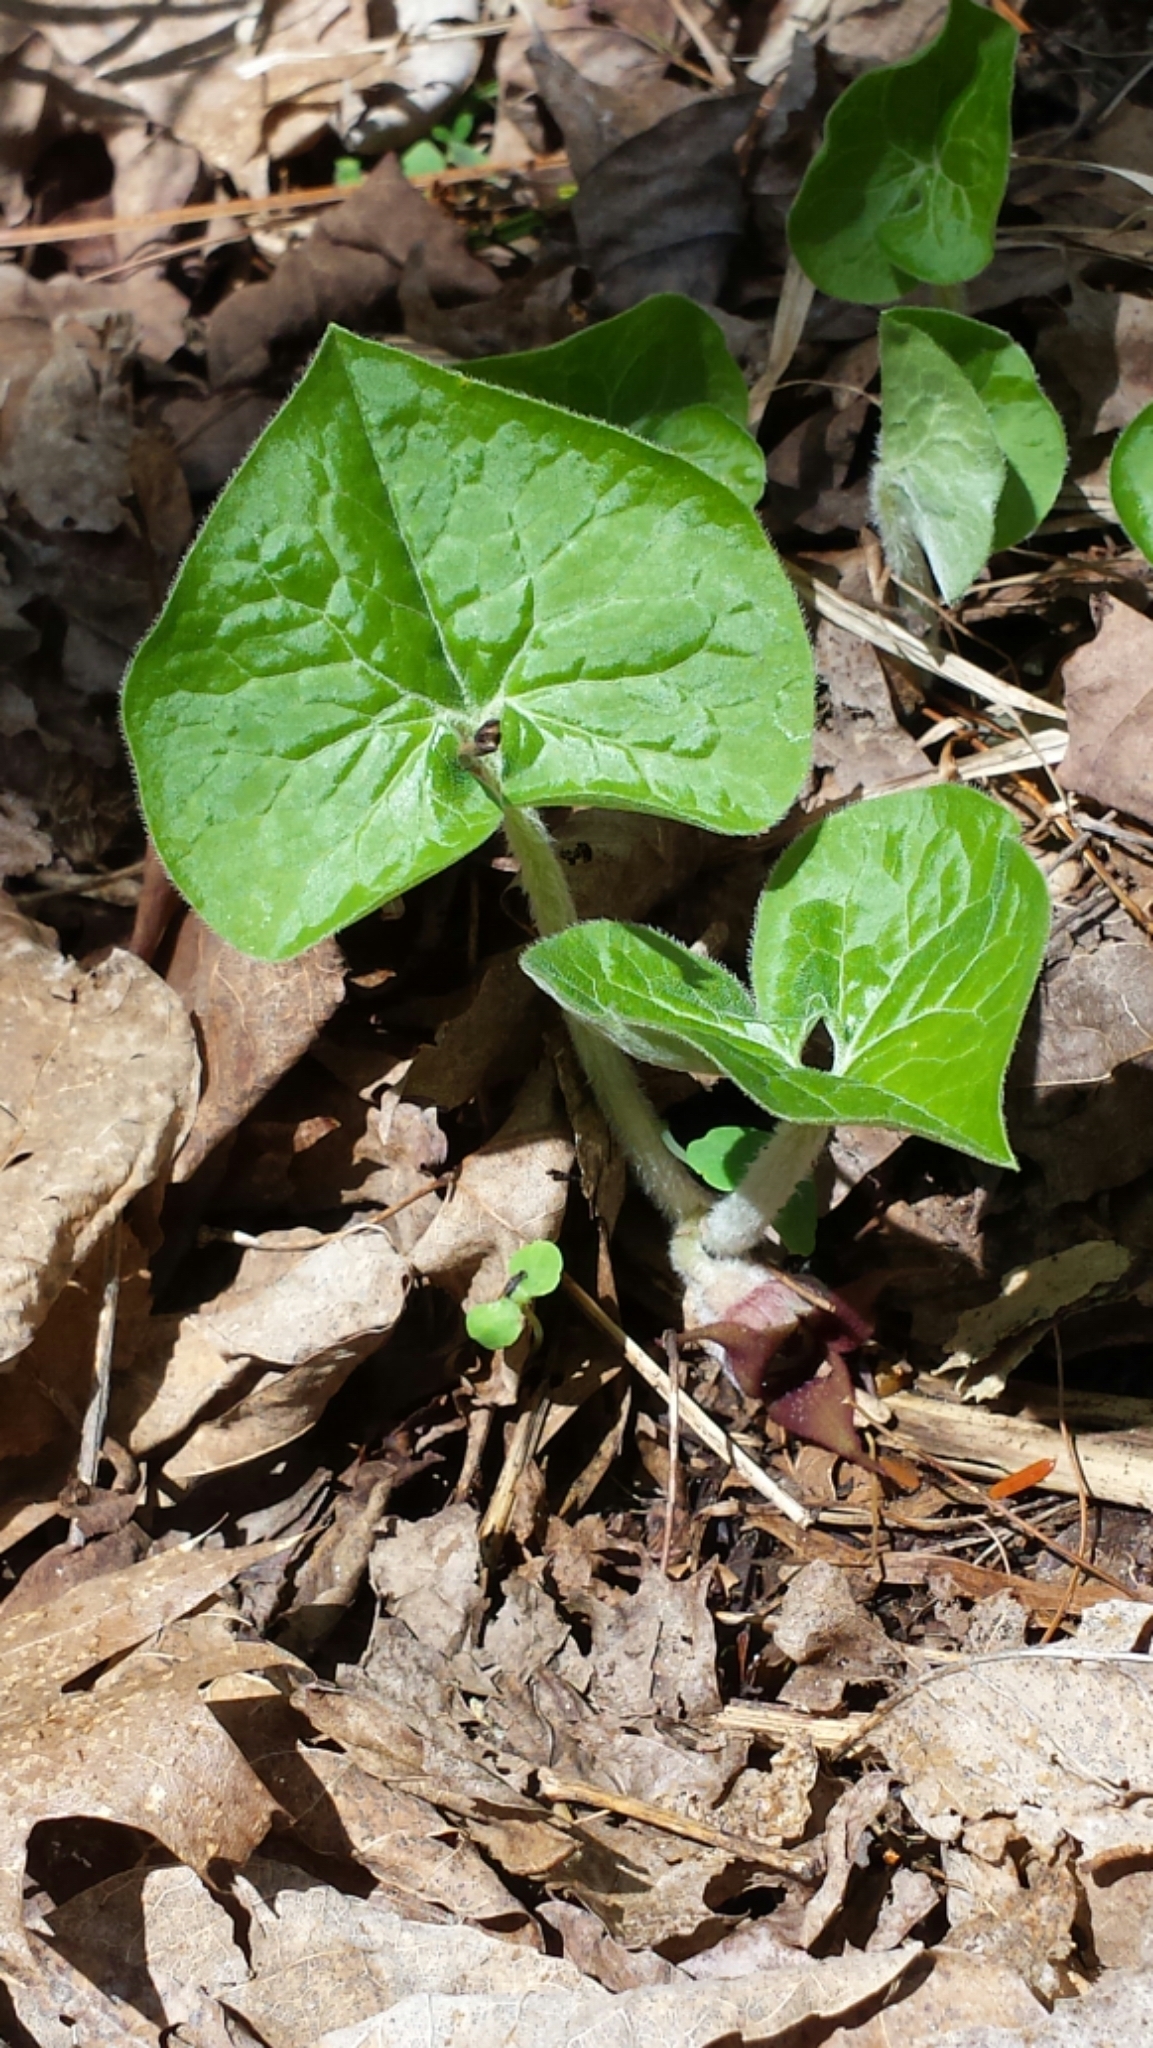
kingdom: Plantae
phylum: Tracheophyta
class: Magnoliopsida
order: Piperales
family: Aristolochiaceae
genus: Asarum
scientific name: Asarum canadense
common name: Wild ginger
